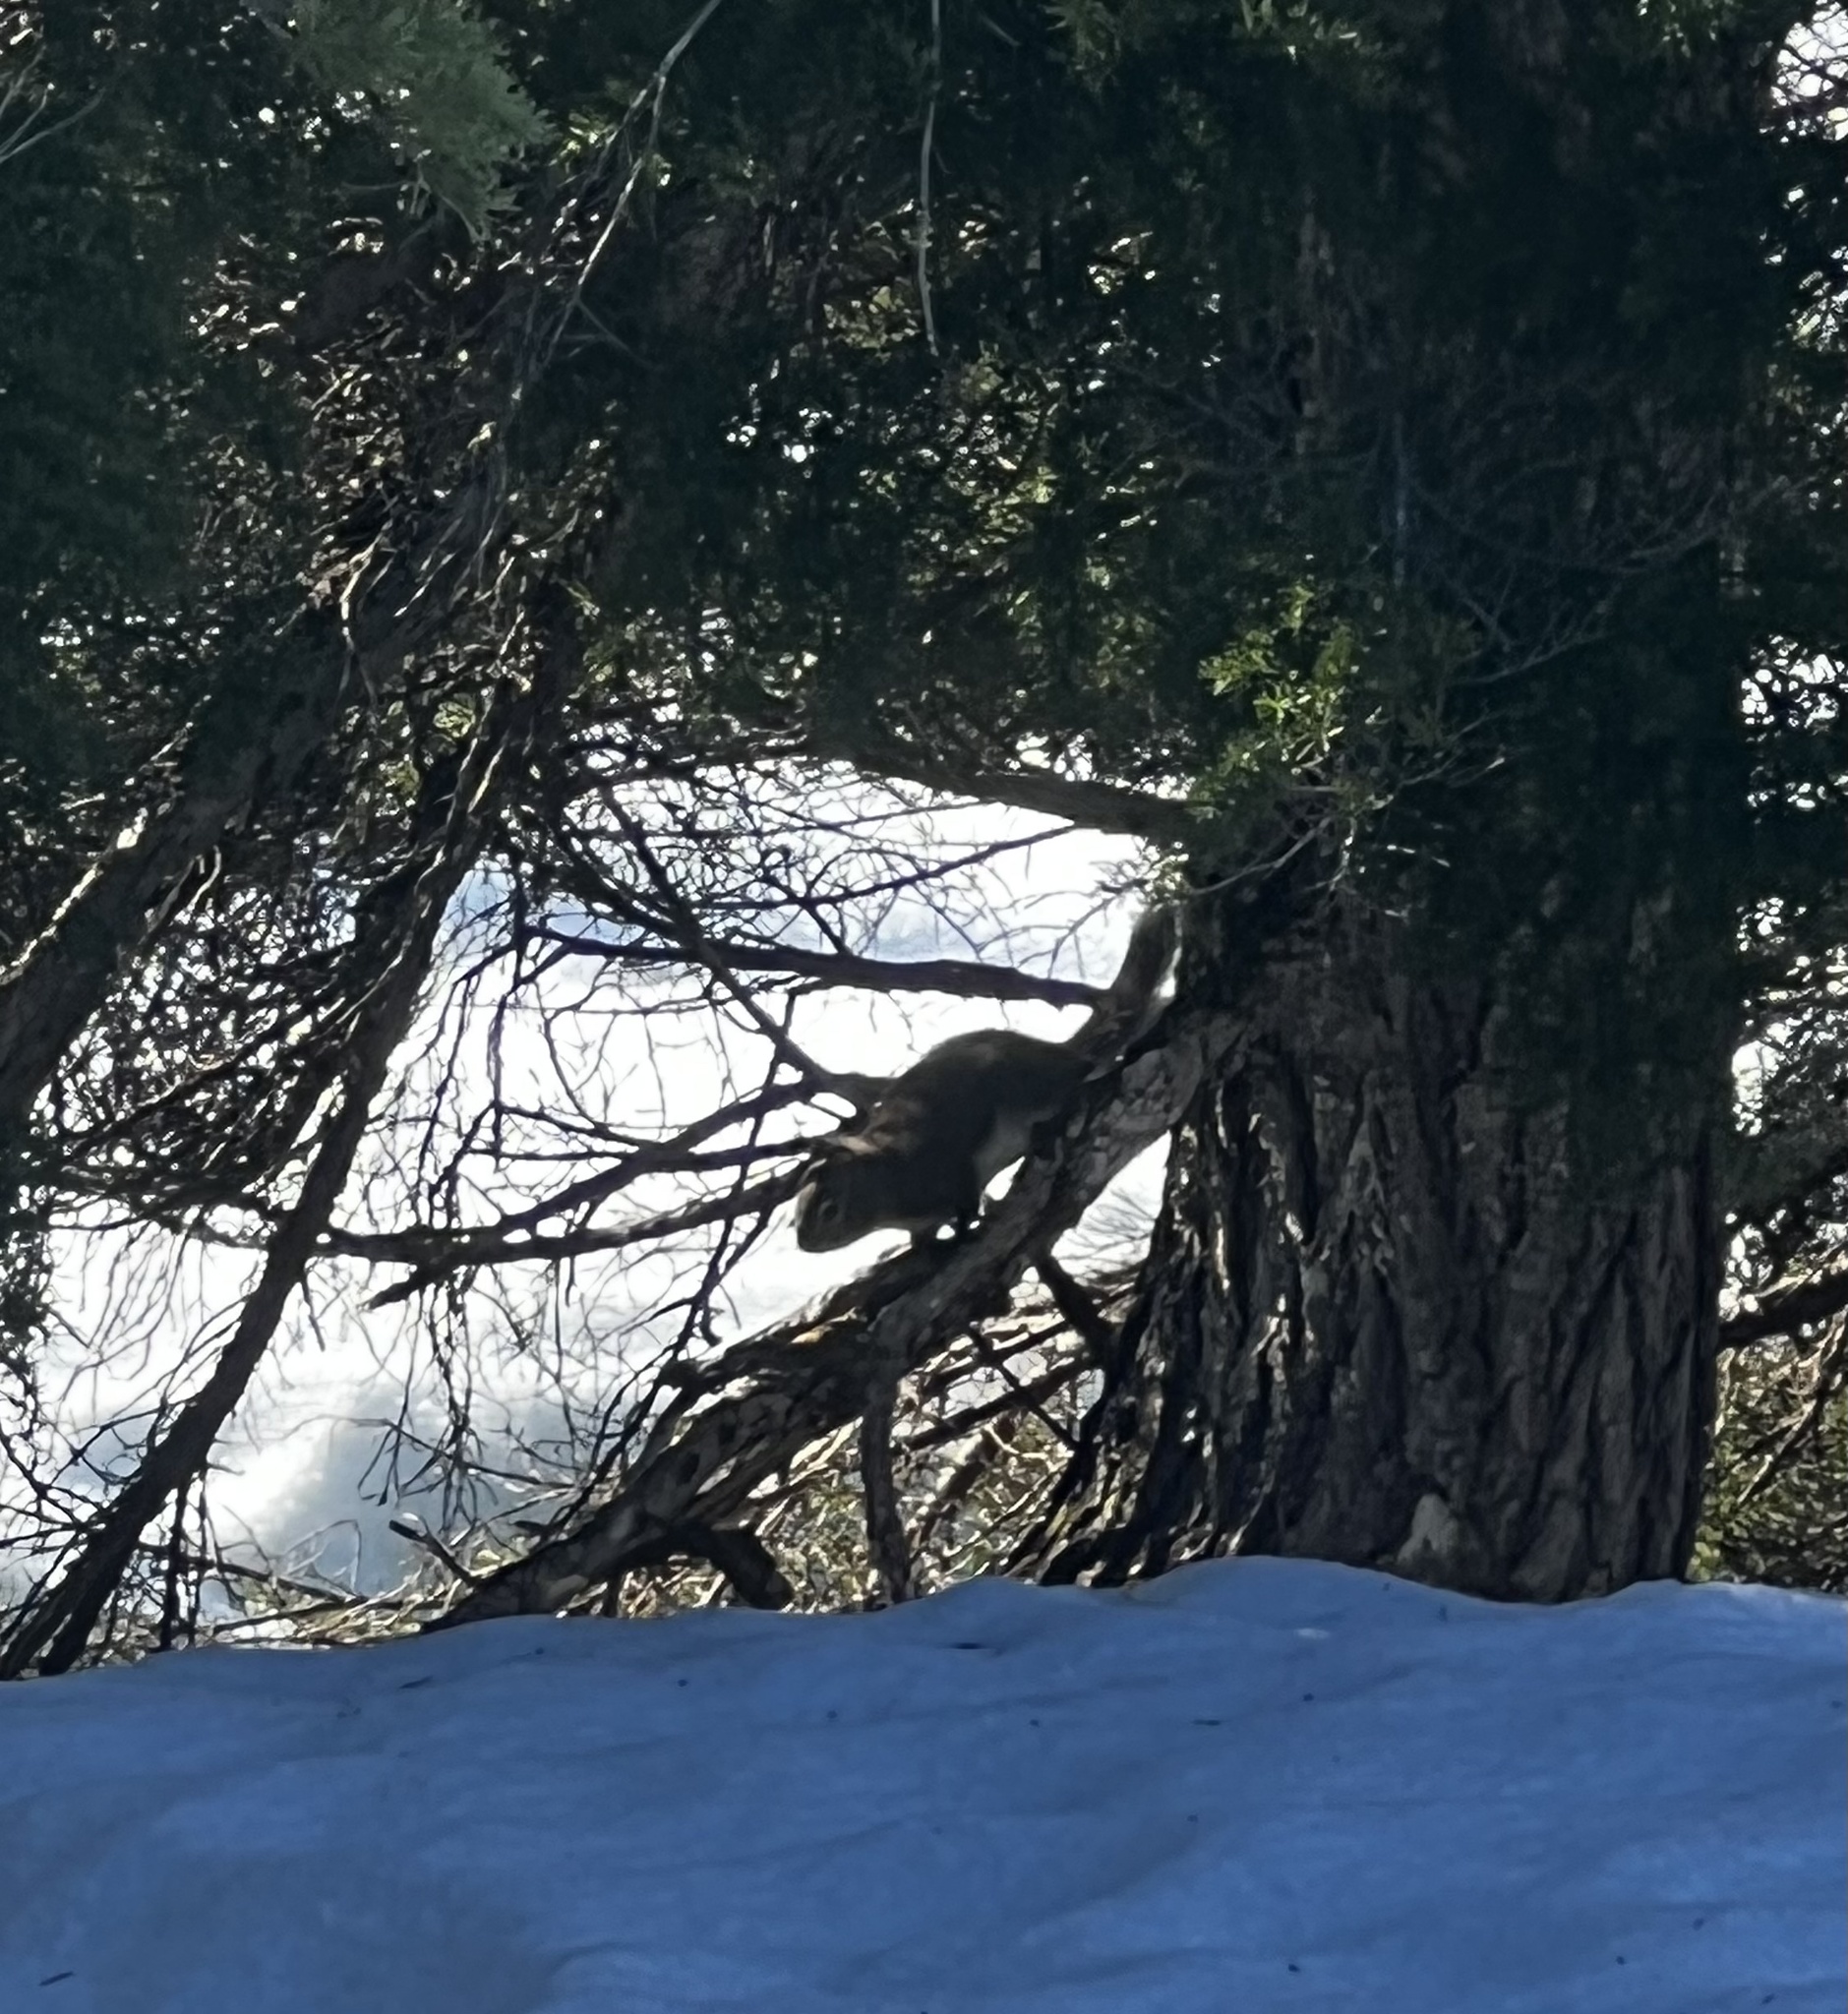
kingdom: Animalia
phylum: Chordata
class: Mammalia
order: Rodentia
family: Sciuridae
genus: Tamiasciurus
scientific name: Tamiasciurus hudsonicus
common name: Red squirrel
